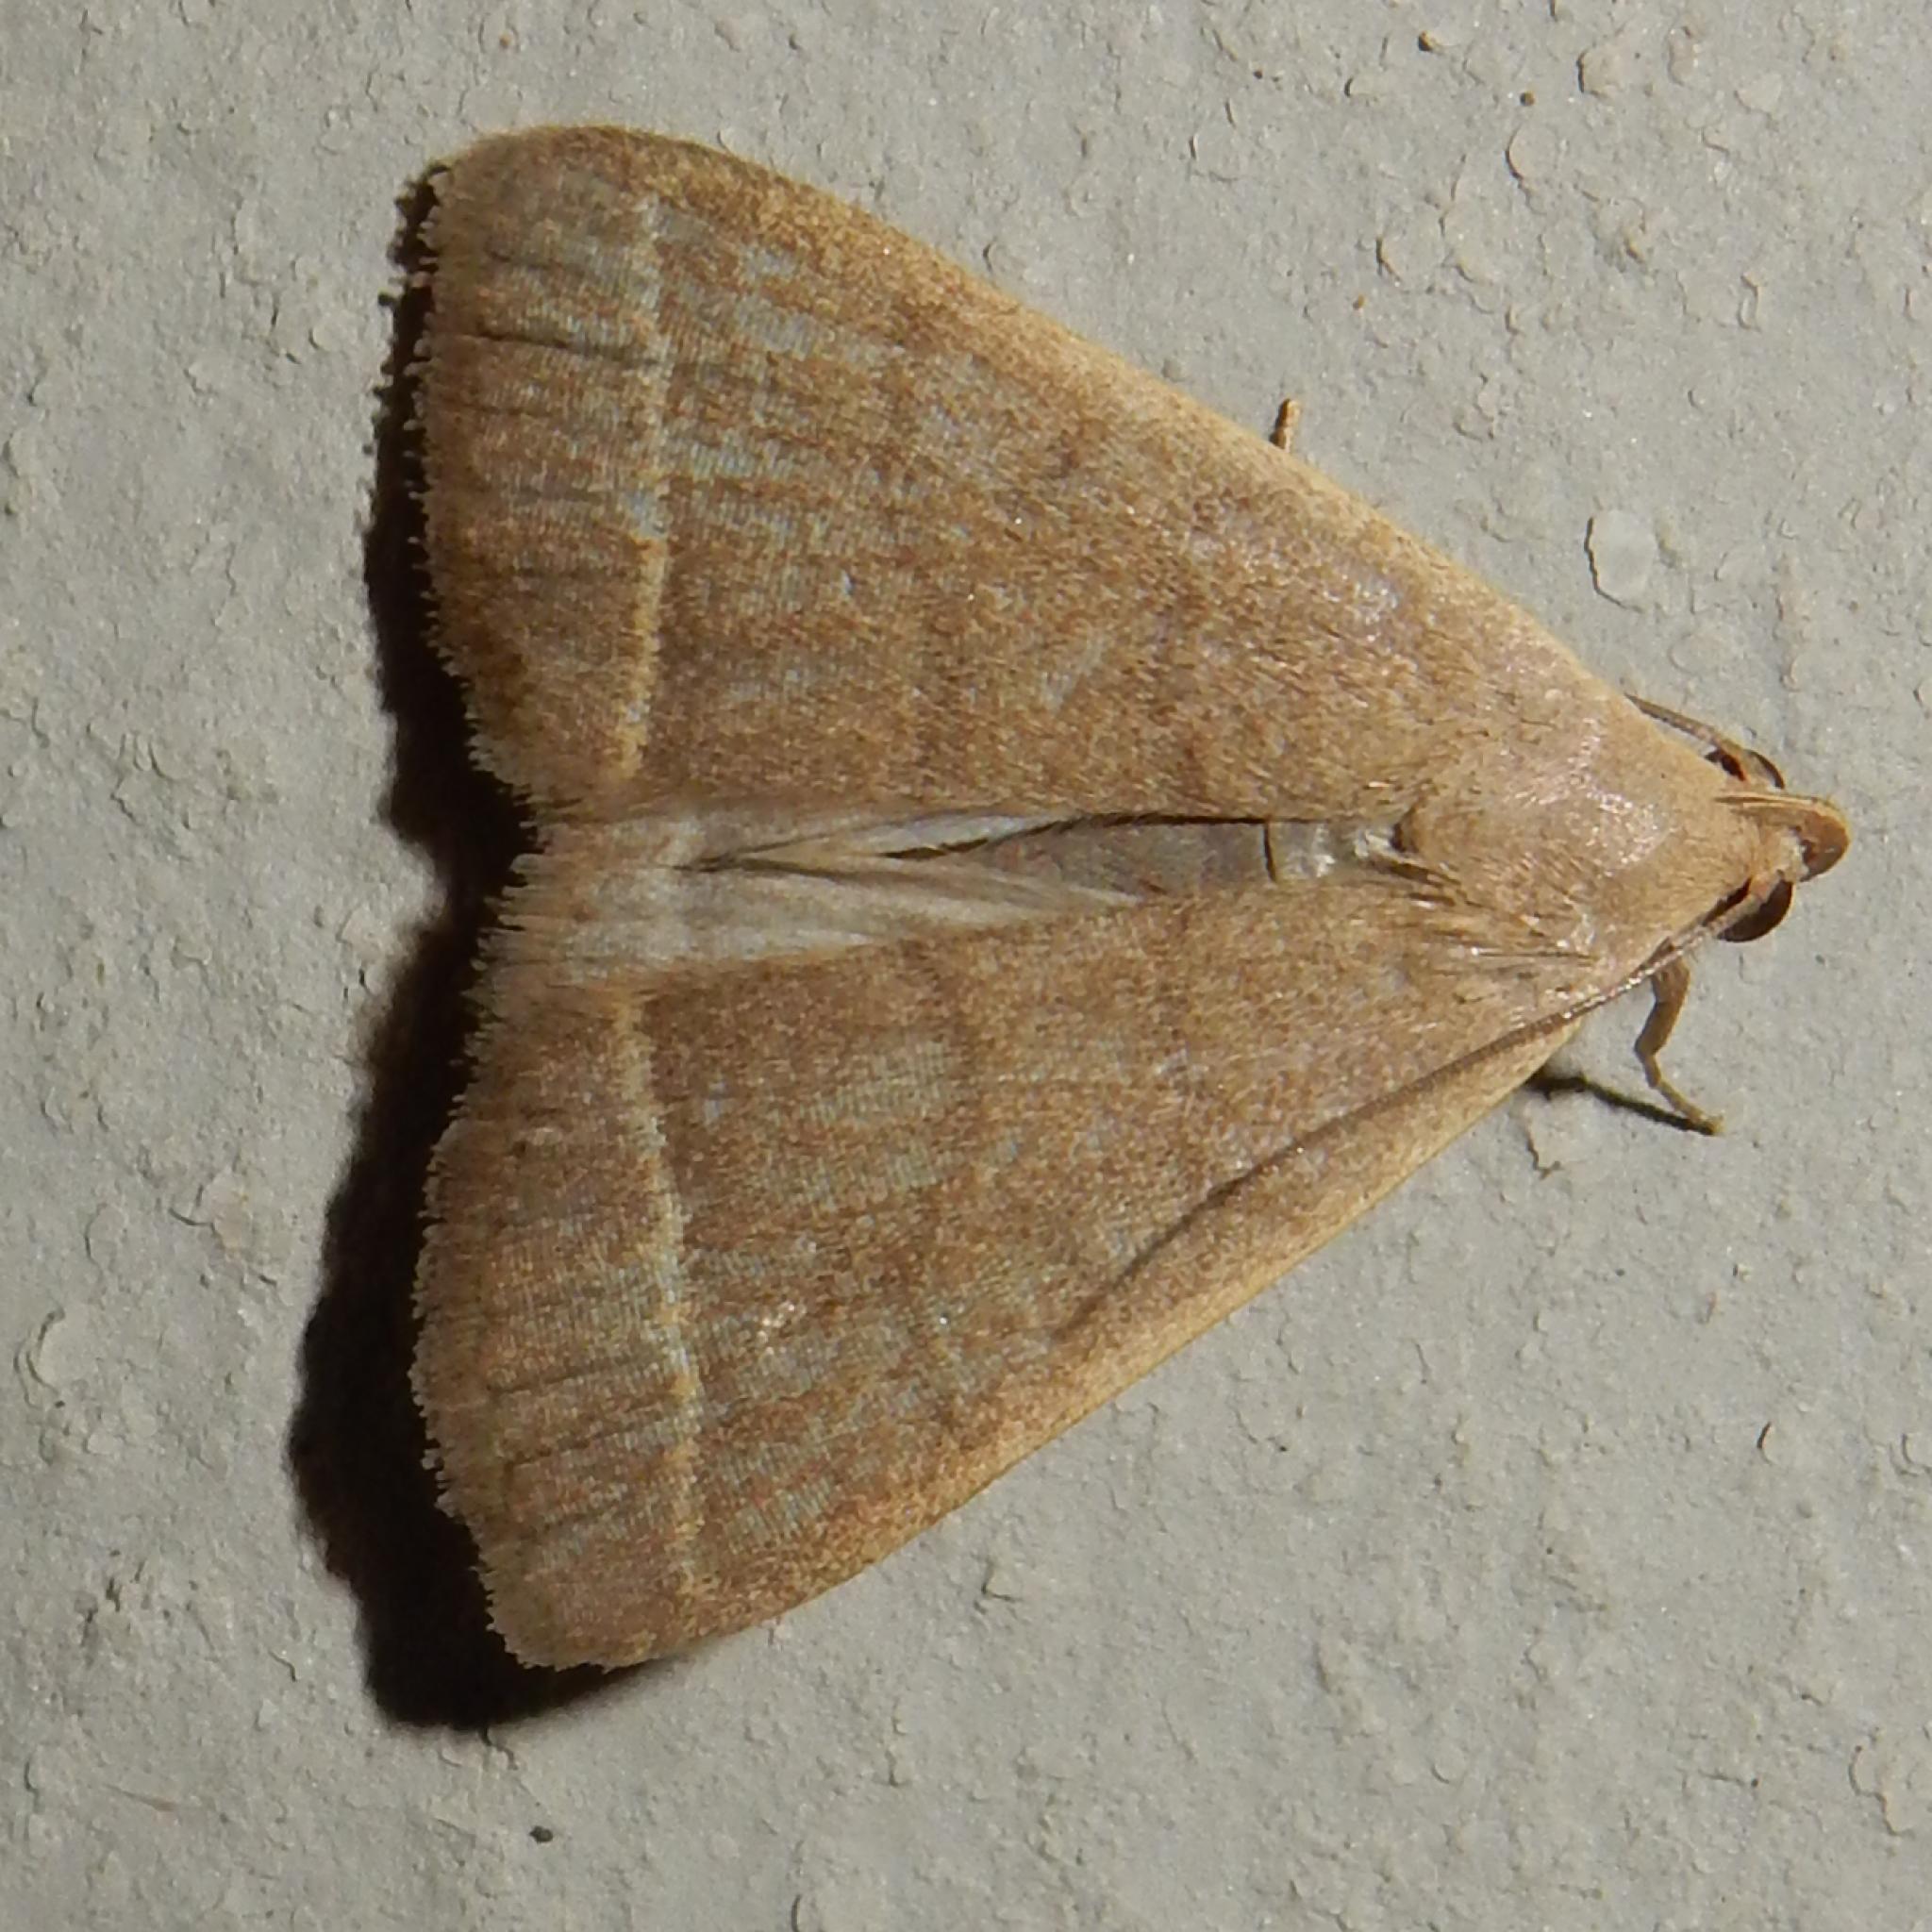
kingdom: Animalia
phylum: Arthropoda
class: Insecta
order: Lepidoptera
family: Erebidae
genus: Simplicia
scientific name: Simplicia extinctalis
